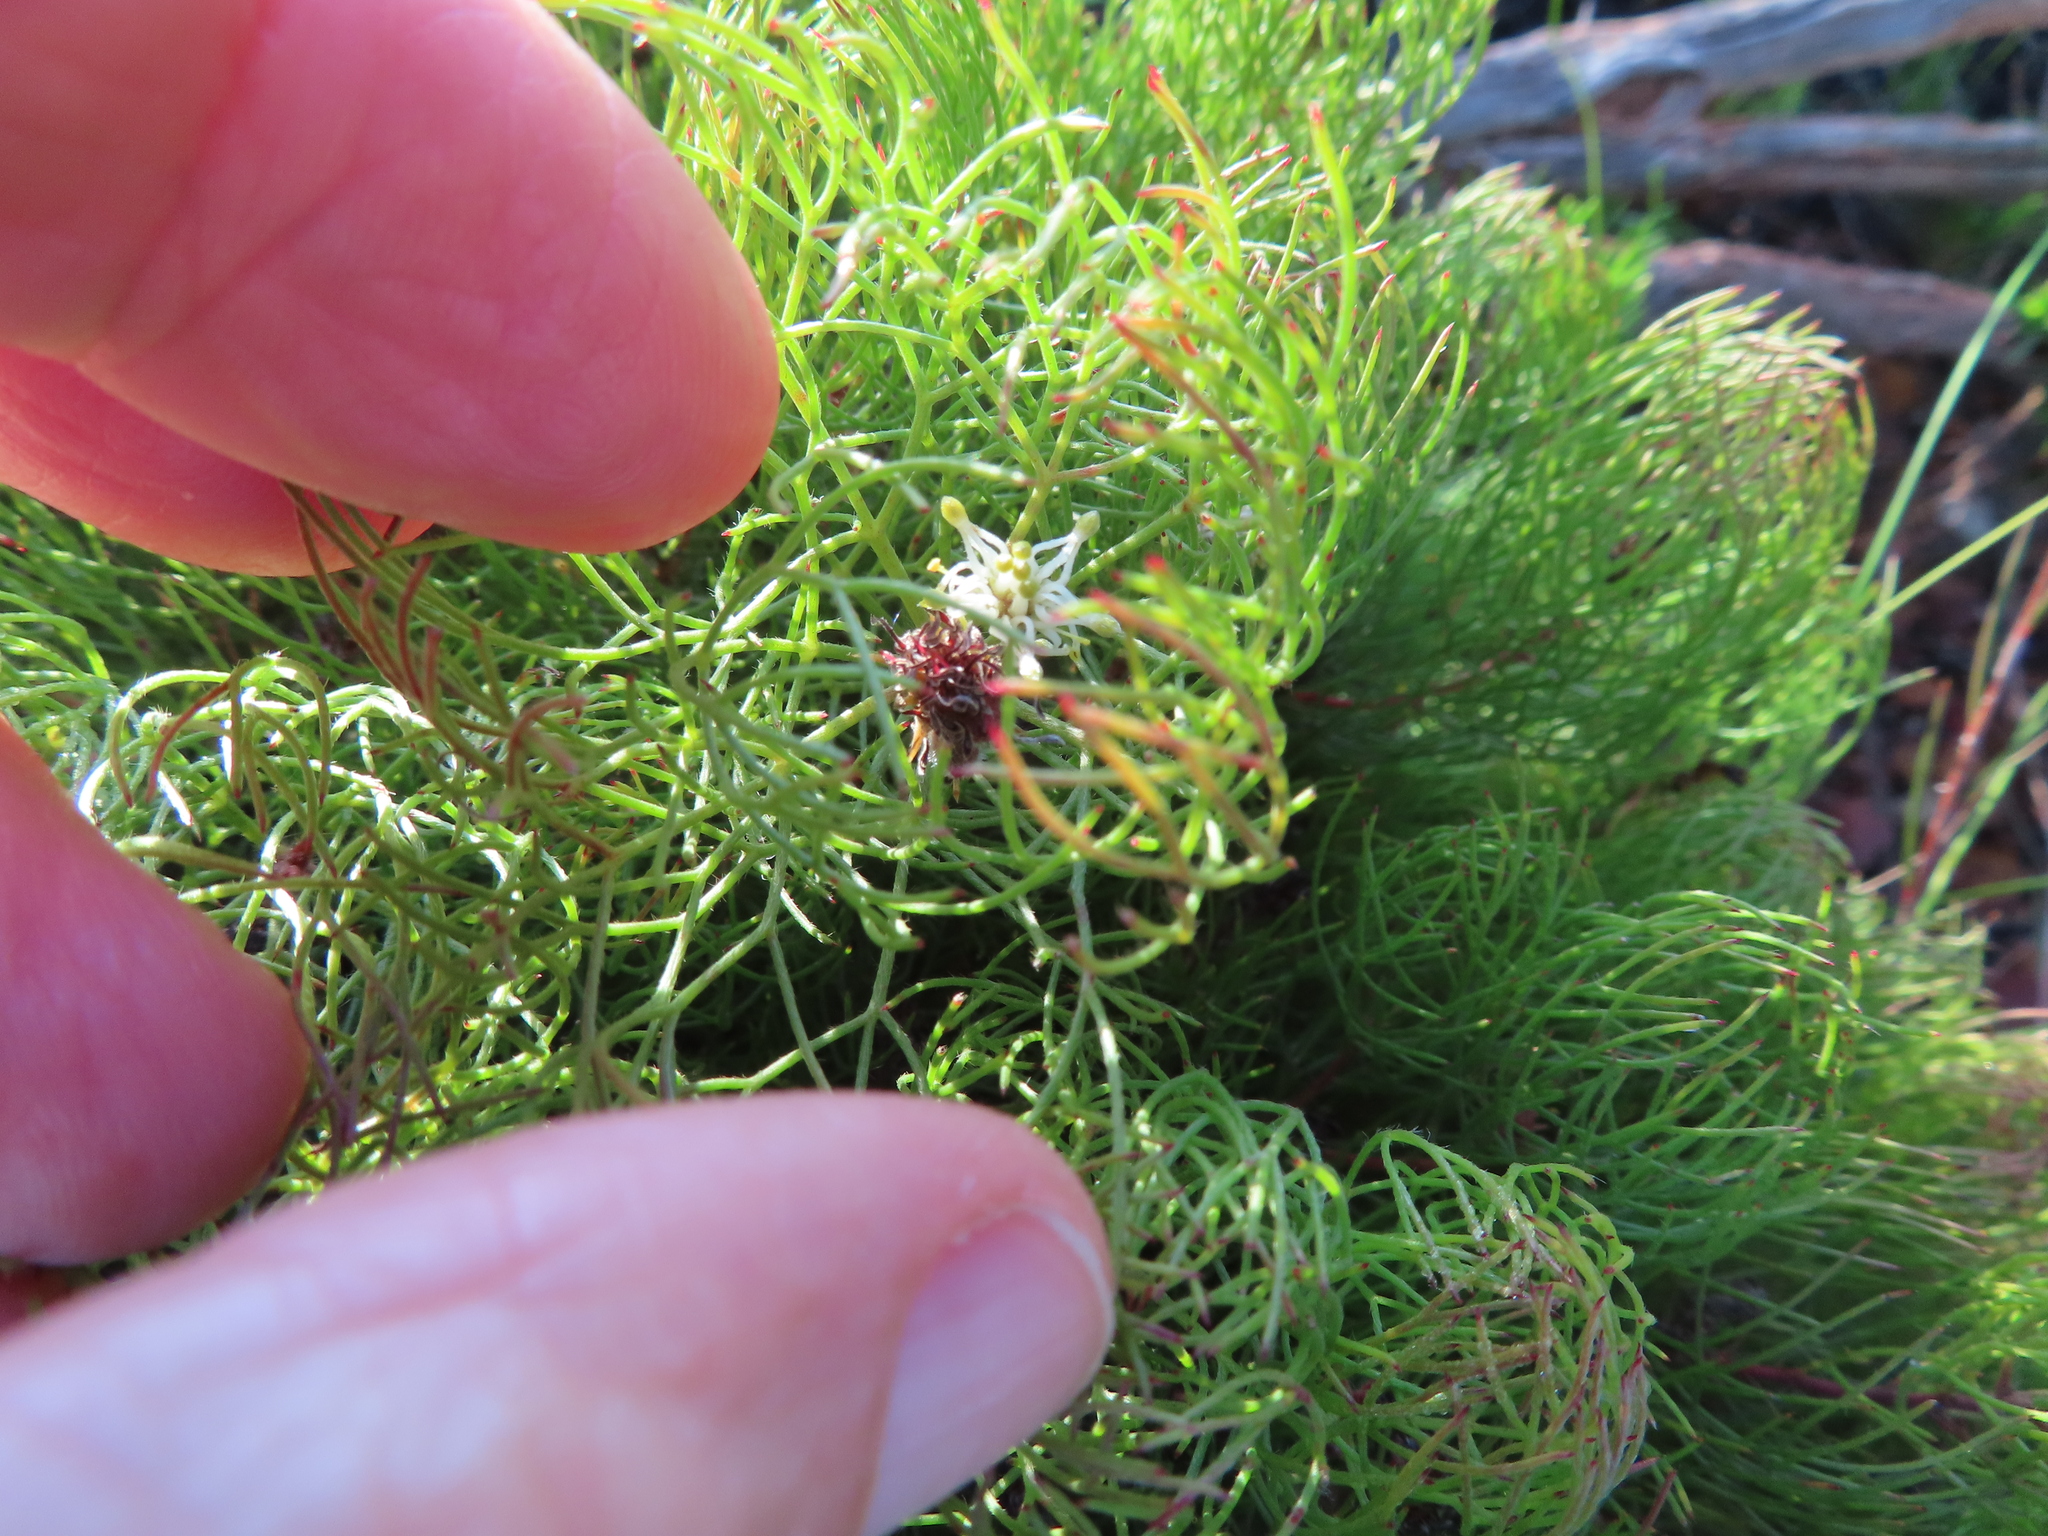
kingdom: Plantae
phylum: Tracheophyta
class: Magnoliopsida
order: Proteales
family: Proteaceae
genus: Serruria
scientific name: Serruria inconspicua
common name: Cryptic spiderhead
